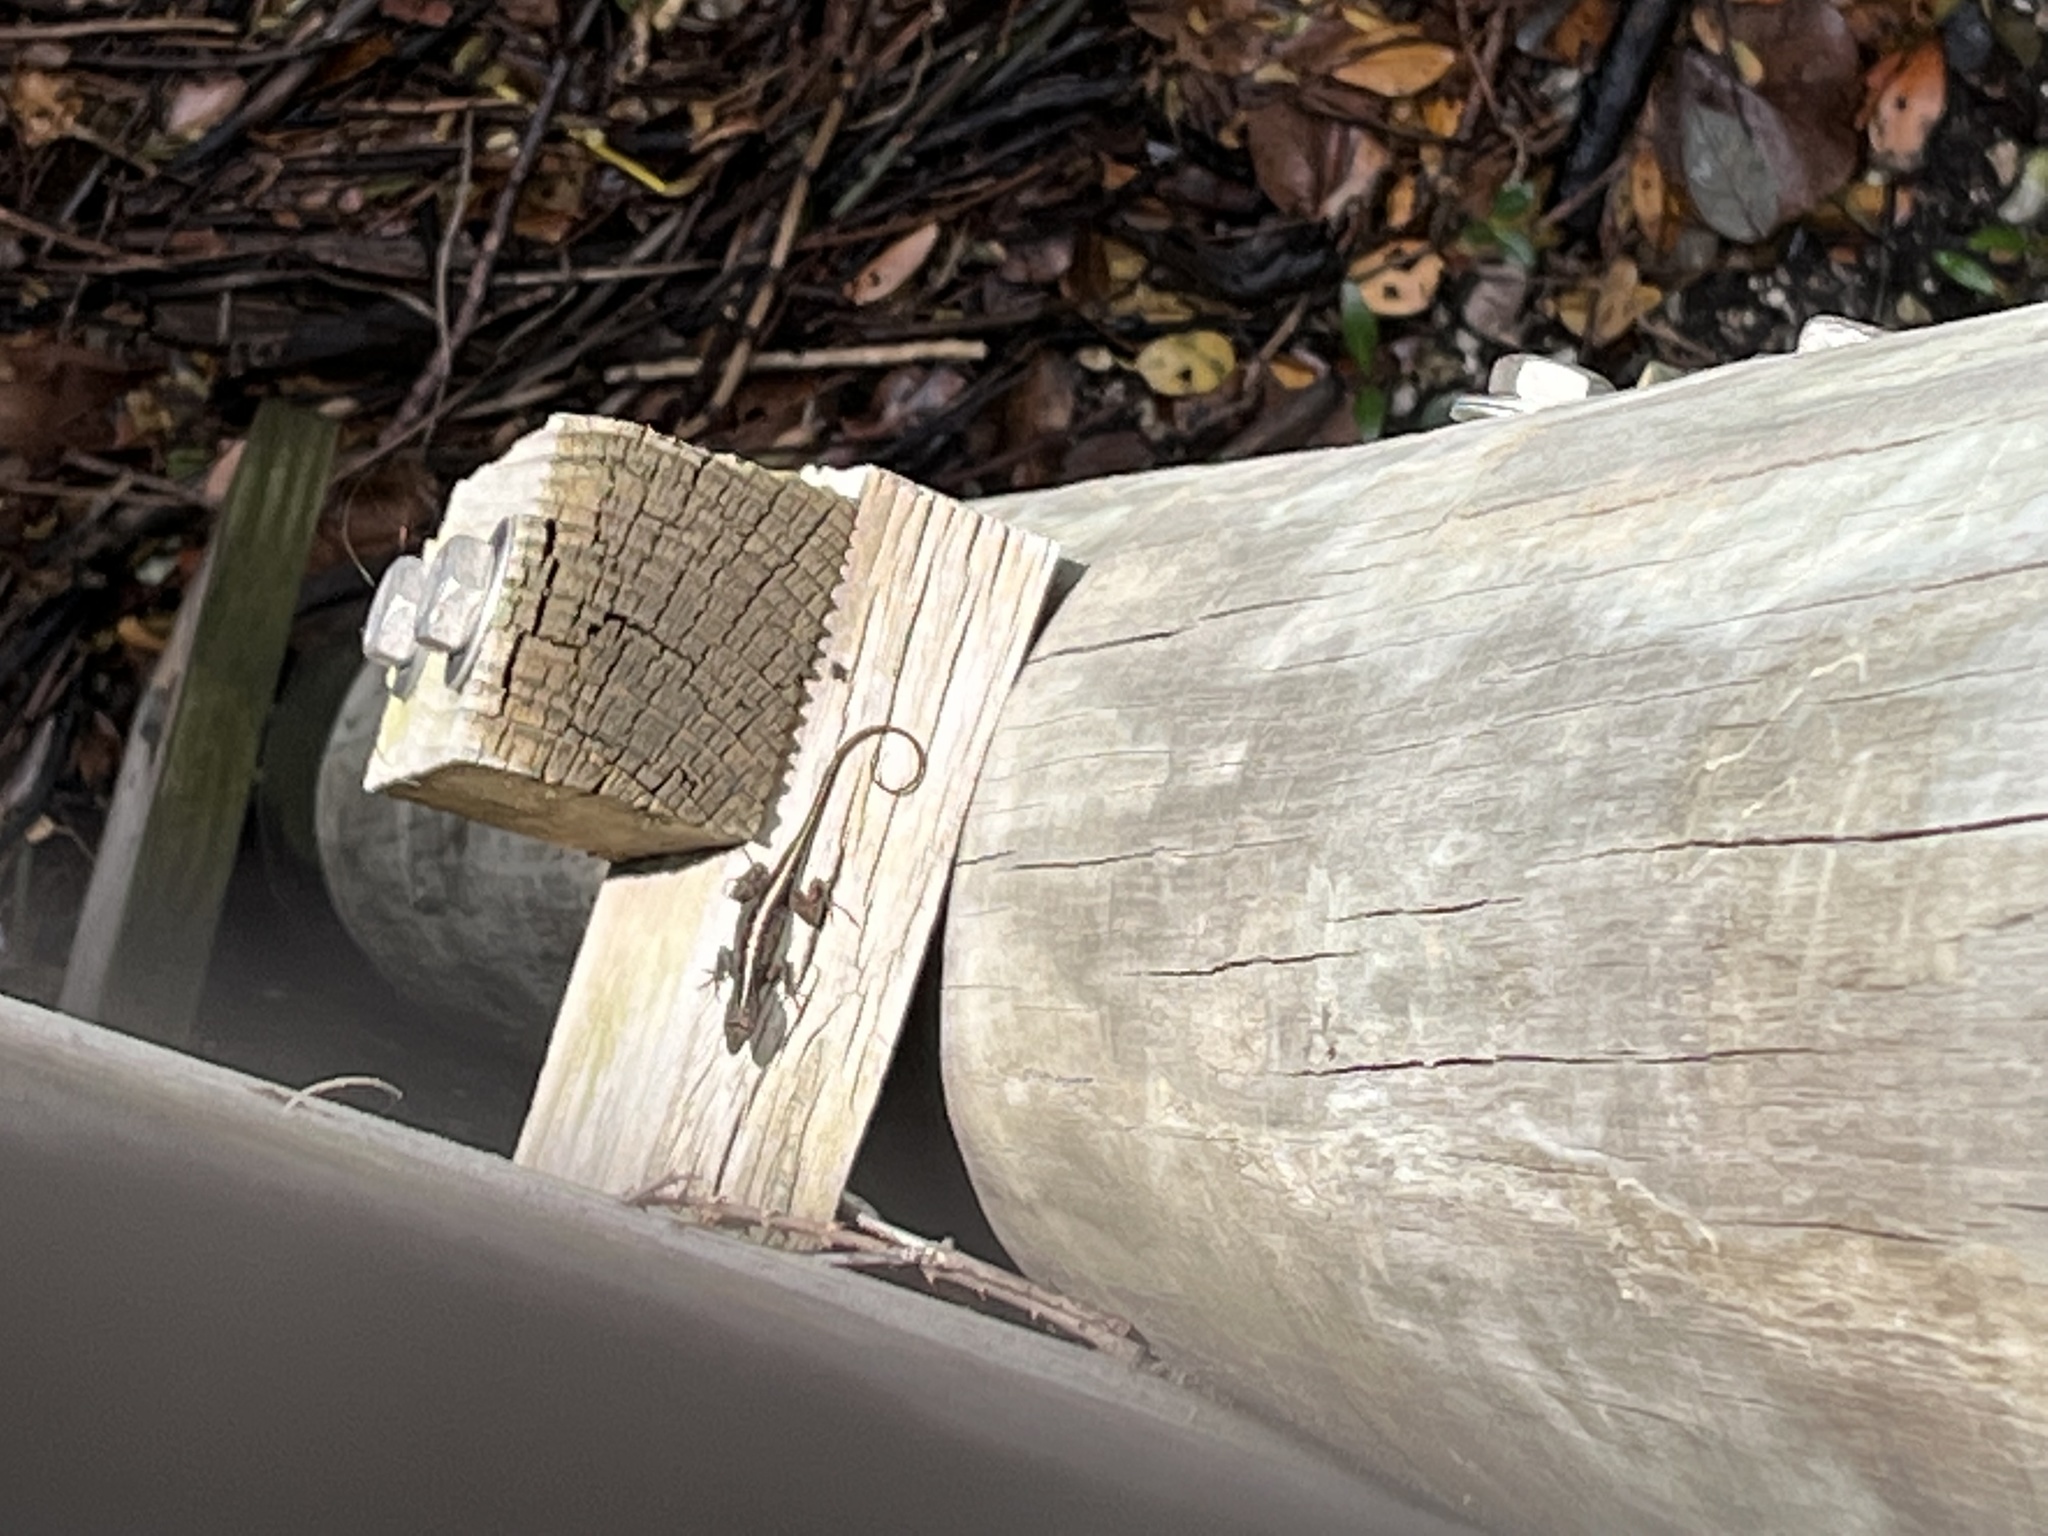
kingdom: Animalia
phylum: Chordata
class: Squamata
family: Dactyloidae
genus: Anolis
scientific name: Anolis sagrei
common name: Brown anole
